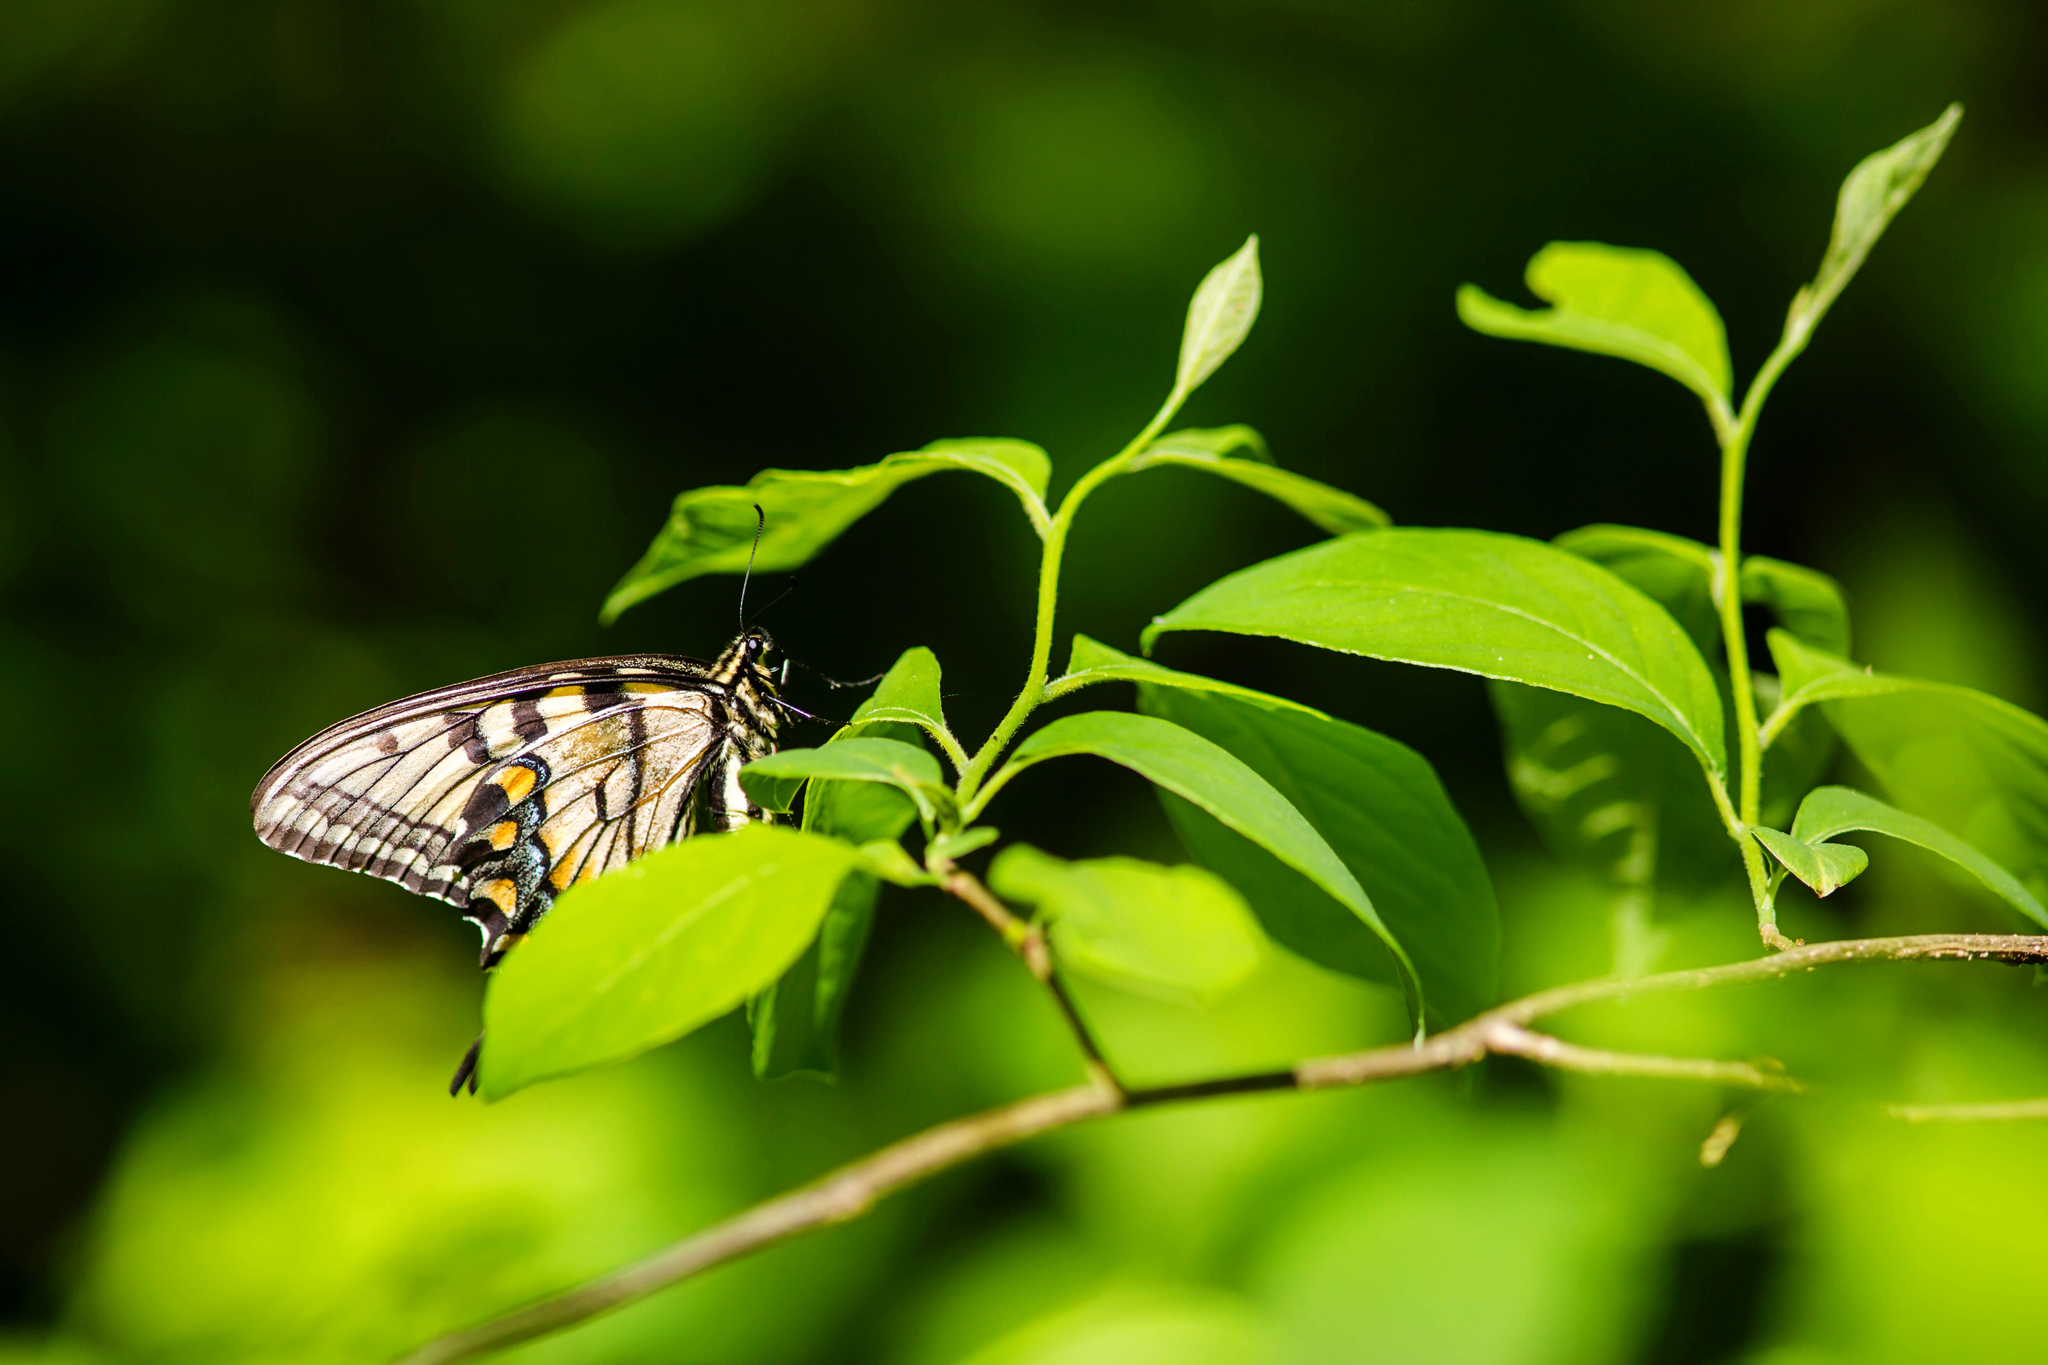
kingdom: Animalia
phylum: Arthropoda
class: Insecta
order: Lepidoptera
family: Papilionidae
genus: Papilio
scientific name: Papilio glaucus
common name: Tiger swallowtail
